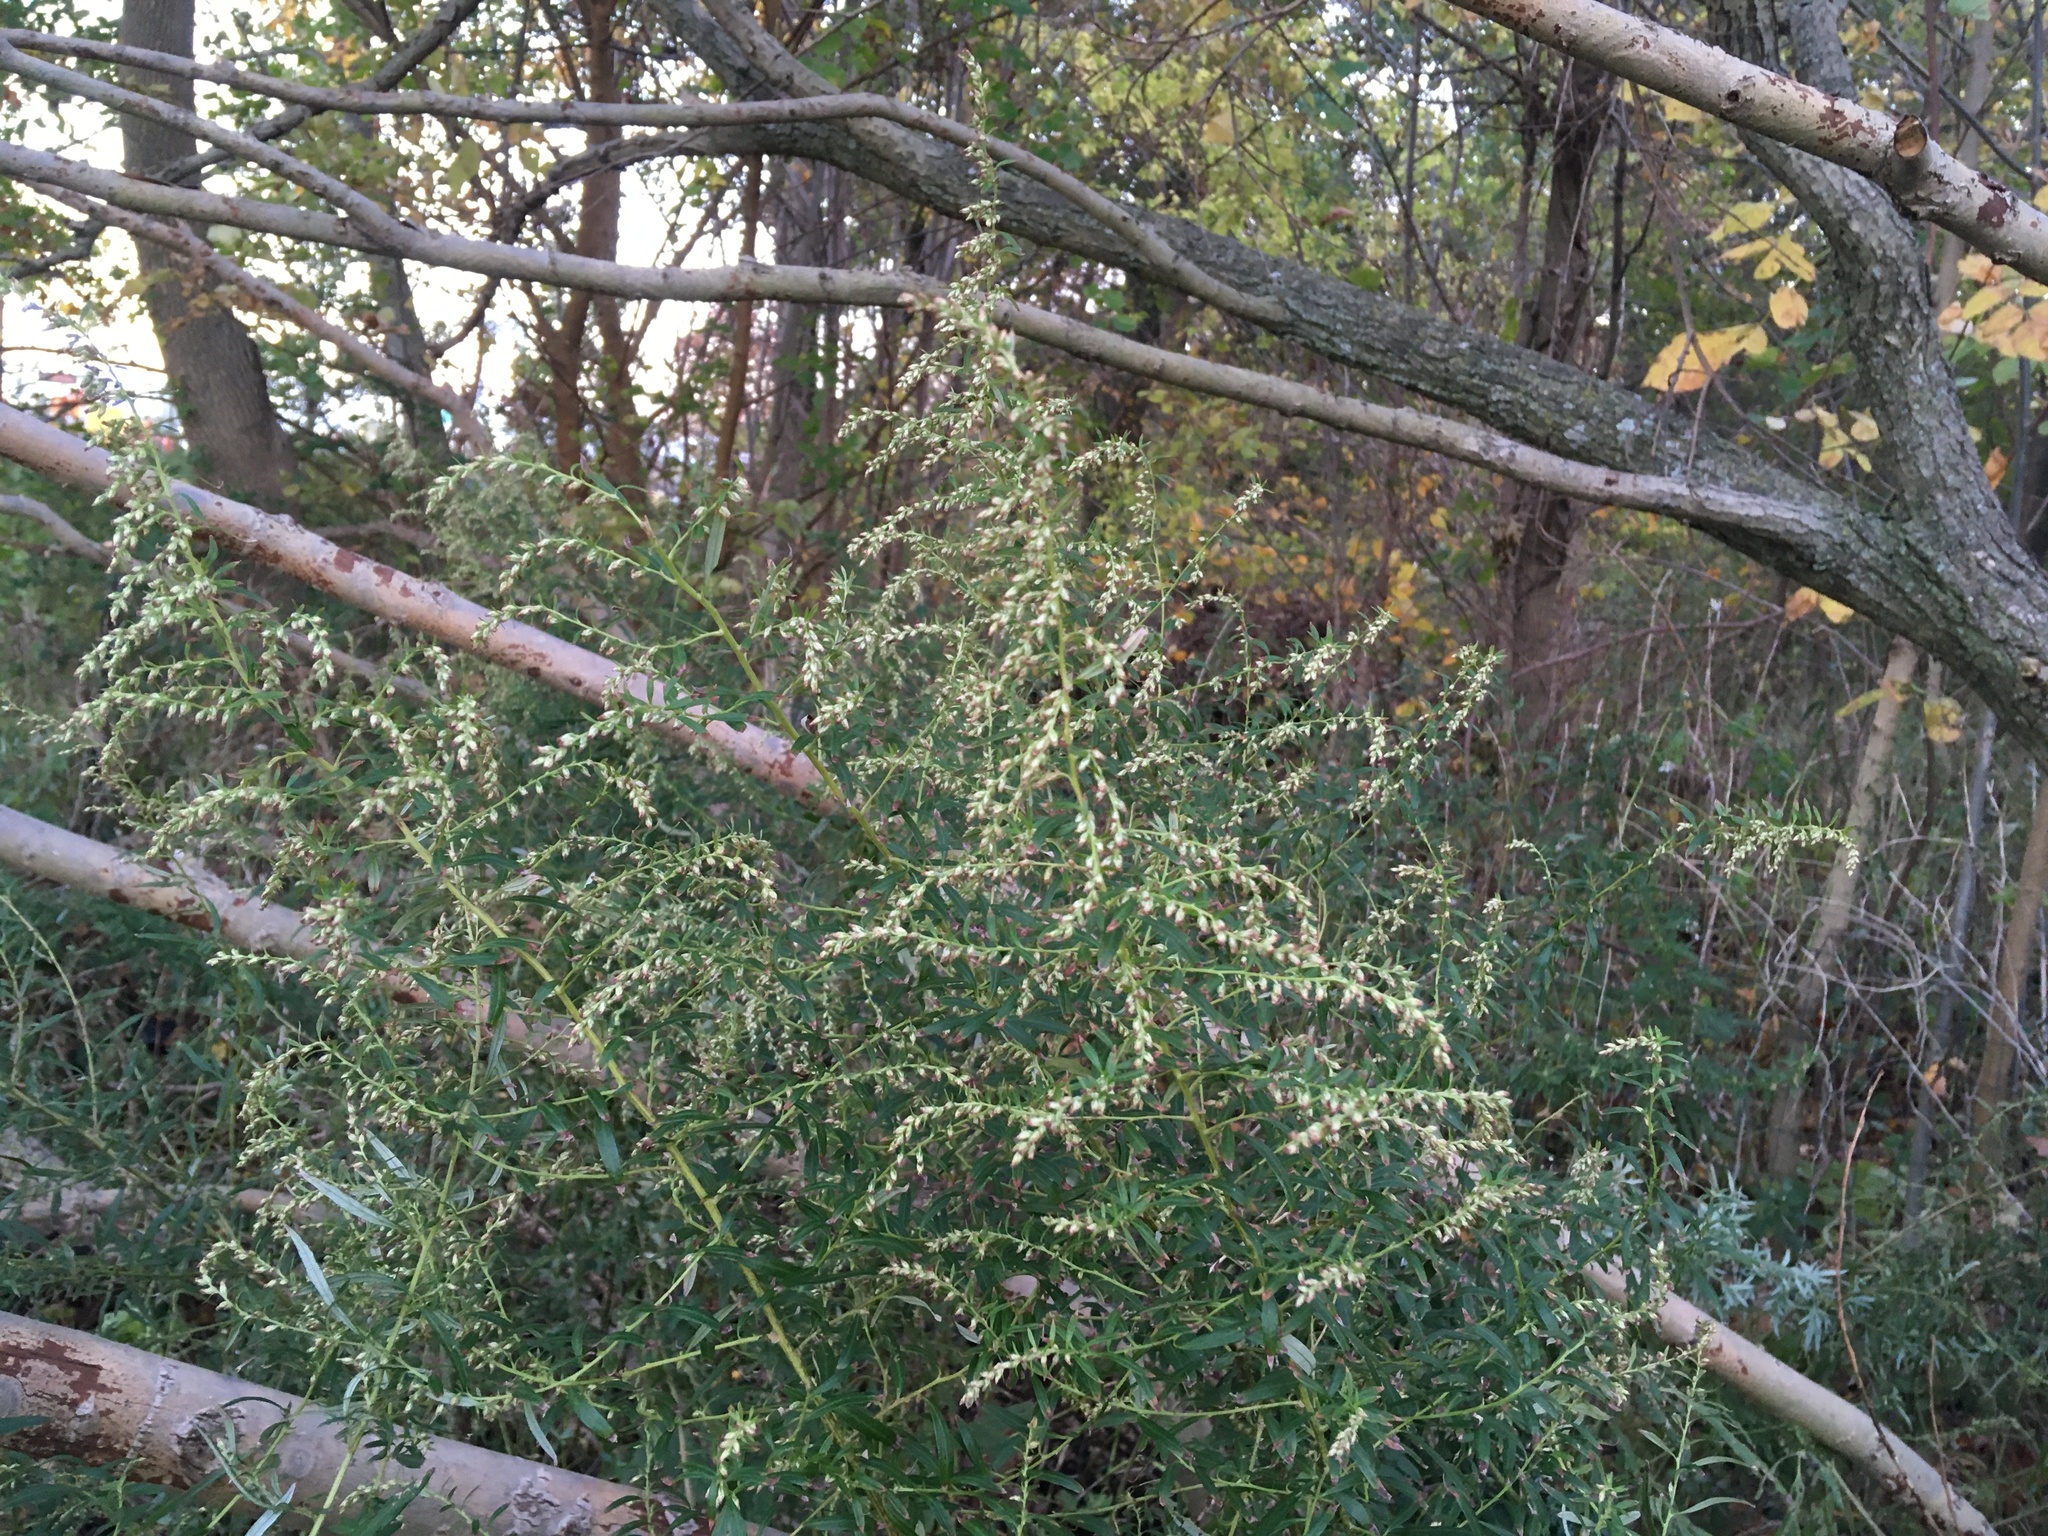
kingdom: Plantae
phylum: Tracheophyta
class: Magnoliopsida
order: Asterales
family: Asteraceae
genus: Artemisia
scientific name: Artemisia vulgaris
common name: Mugwort
